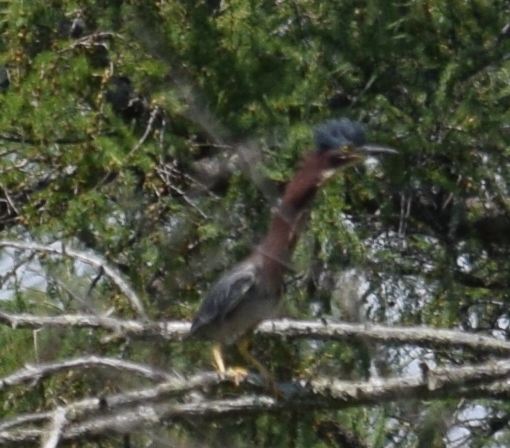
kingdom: Animalia
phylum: Chordata
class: Aves
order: Pelecaniformes
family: Ardeidae
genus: Butorides
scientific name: Butorides virescens
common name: Green heron
